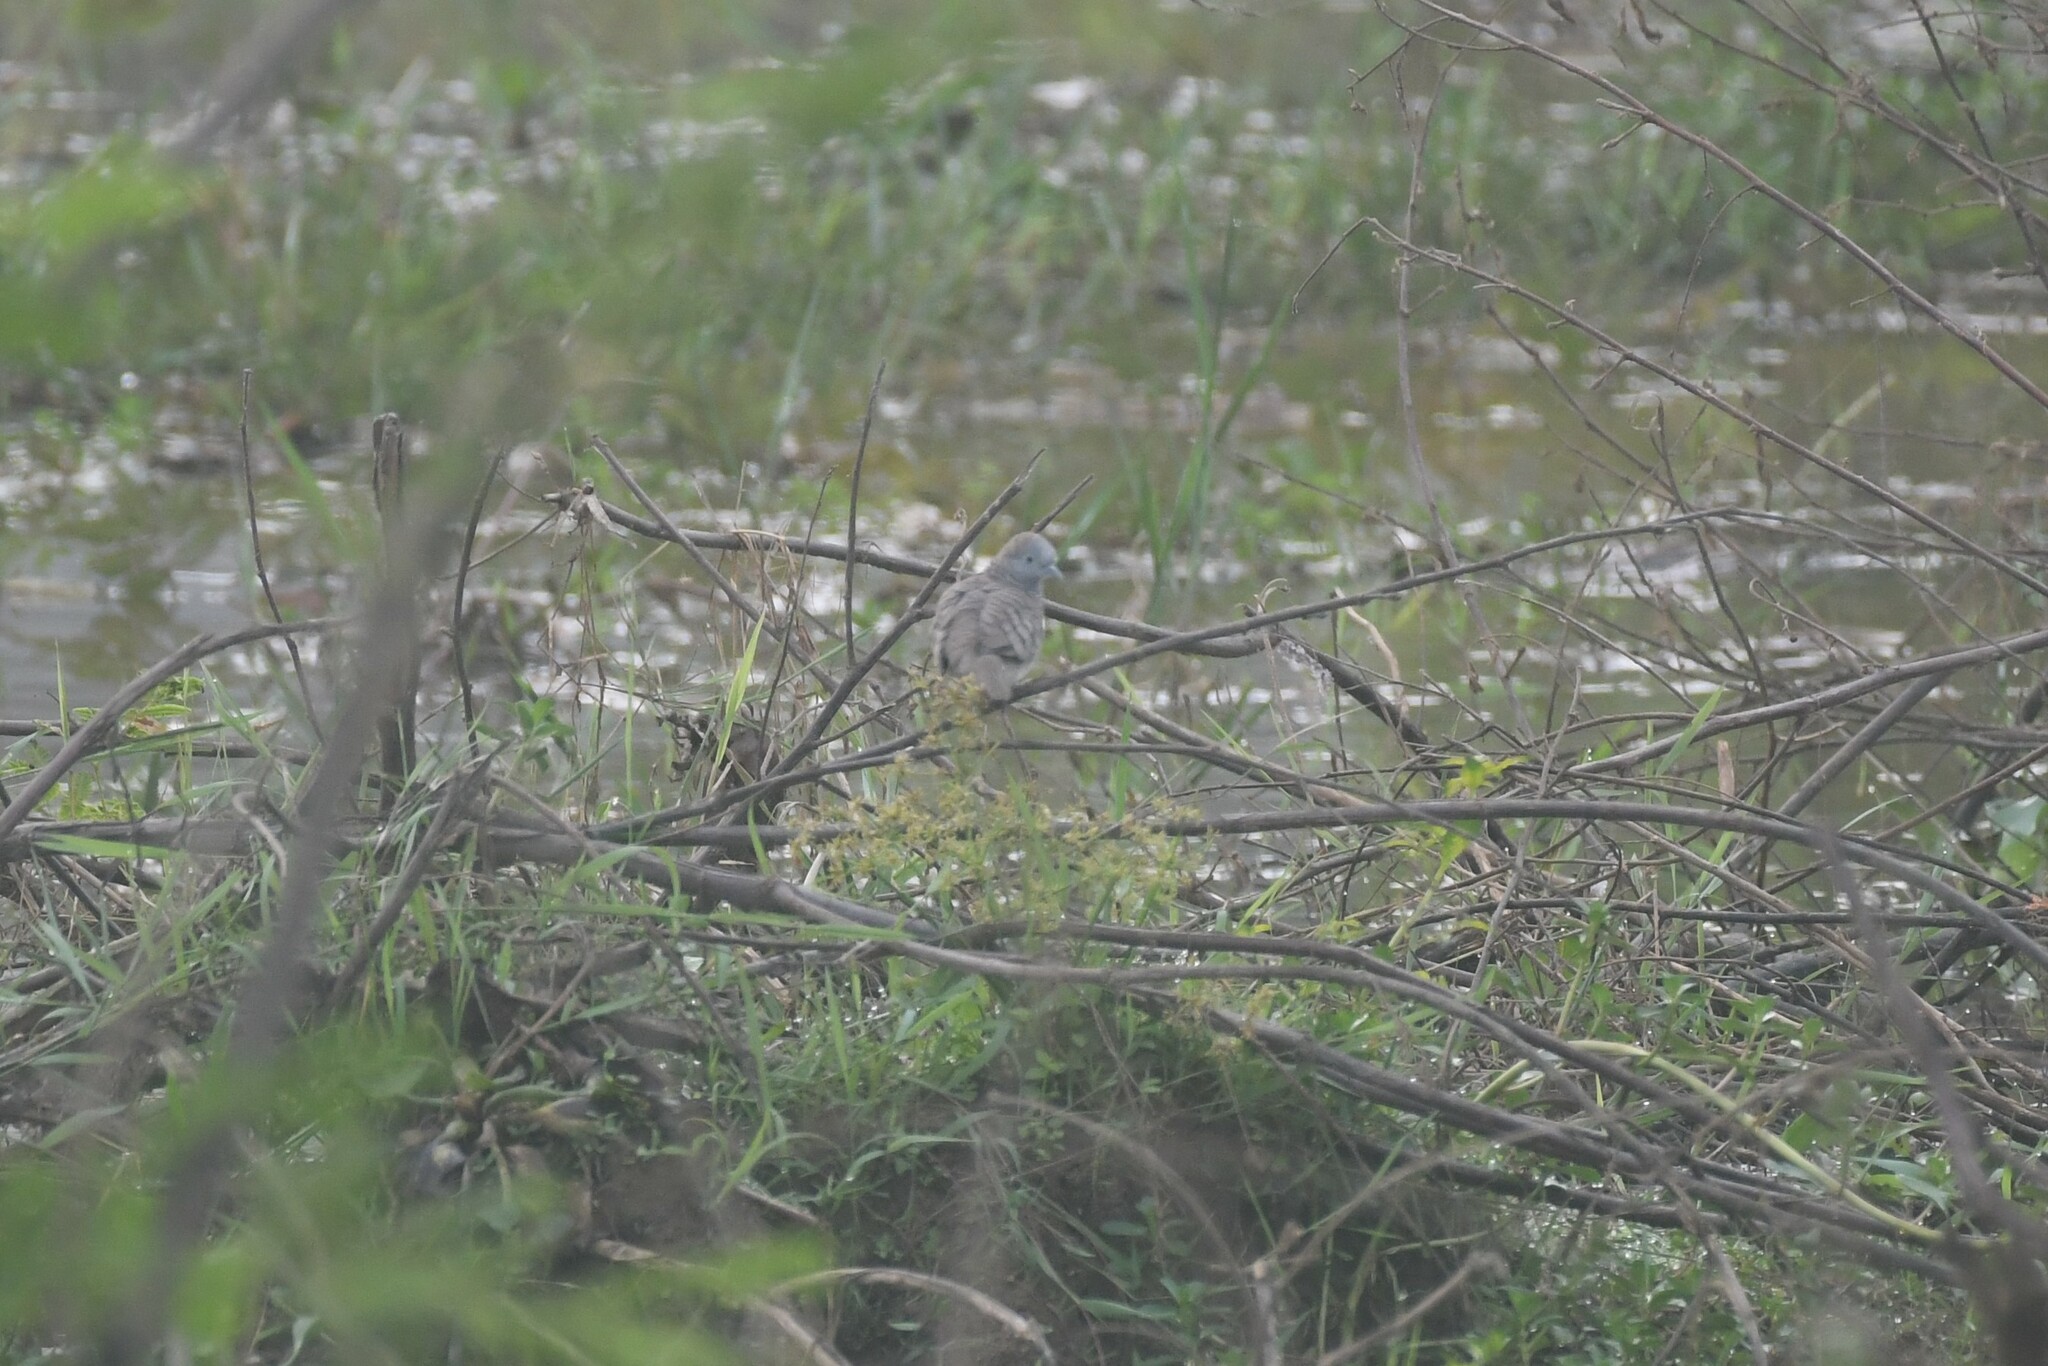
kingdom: Animalia
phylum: Chordata
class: Aves
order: Columbiformes
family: Columbidae
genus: Geopelia
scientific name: Geopelia striata
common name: Zebra dove
